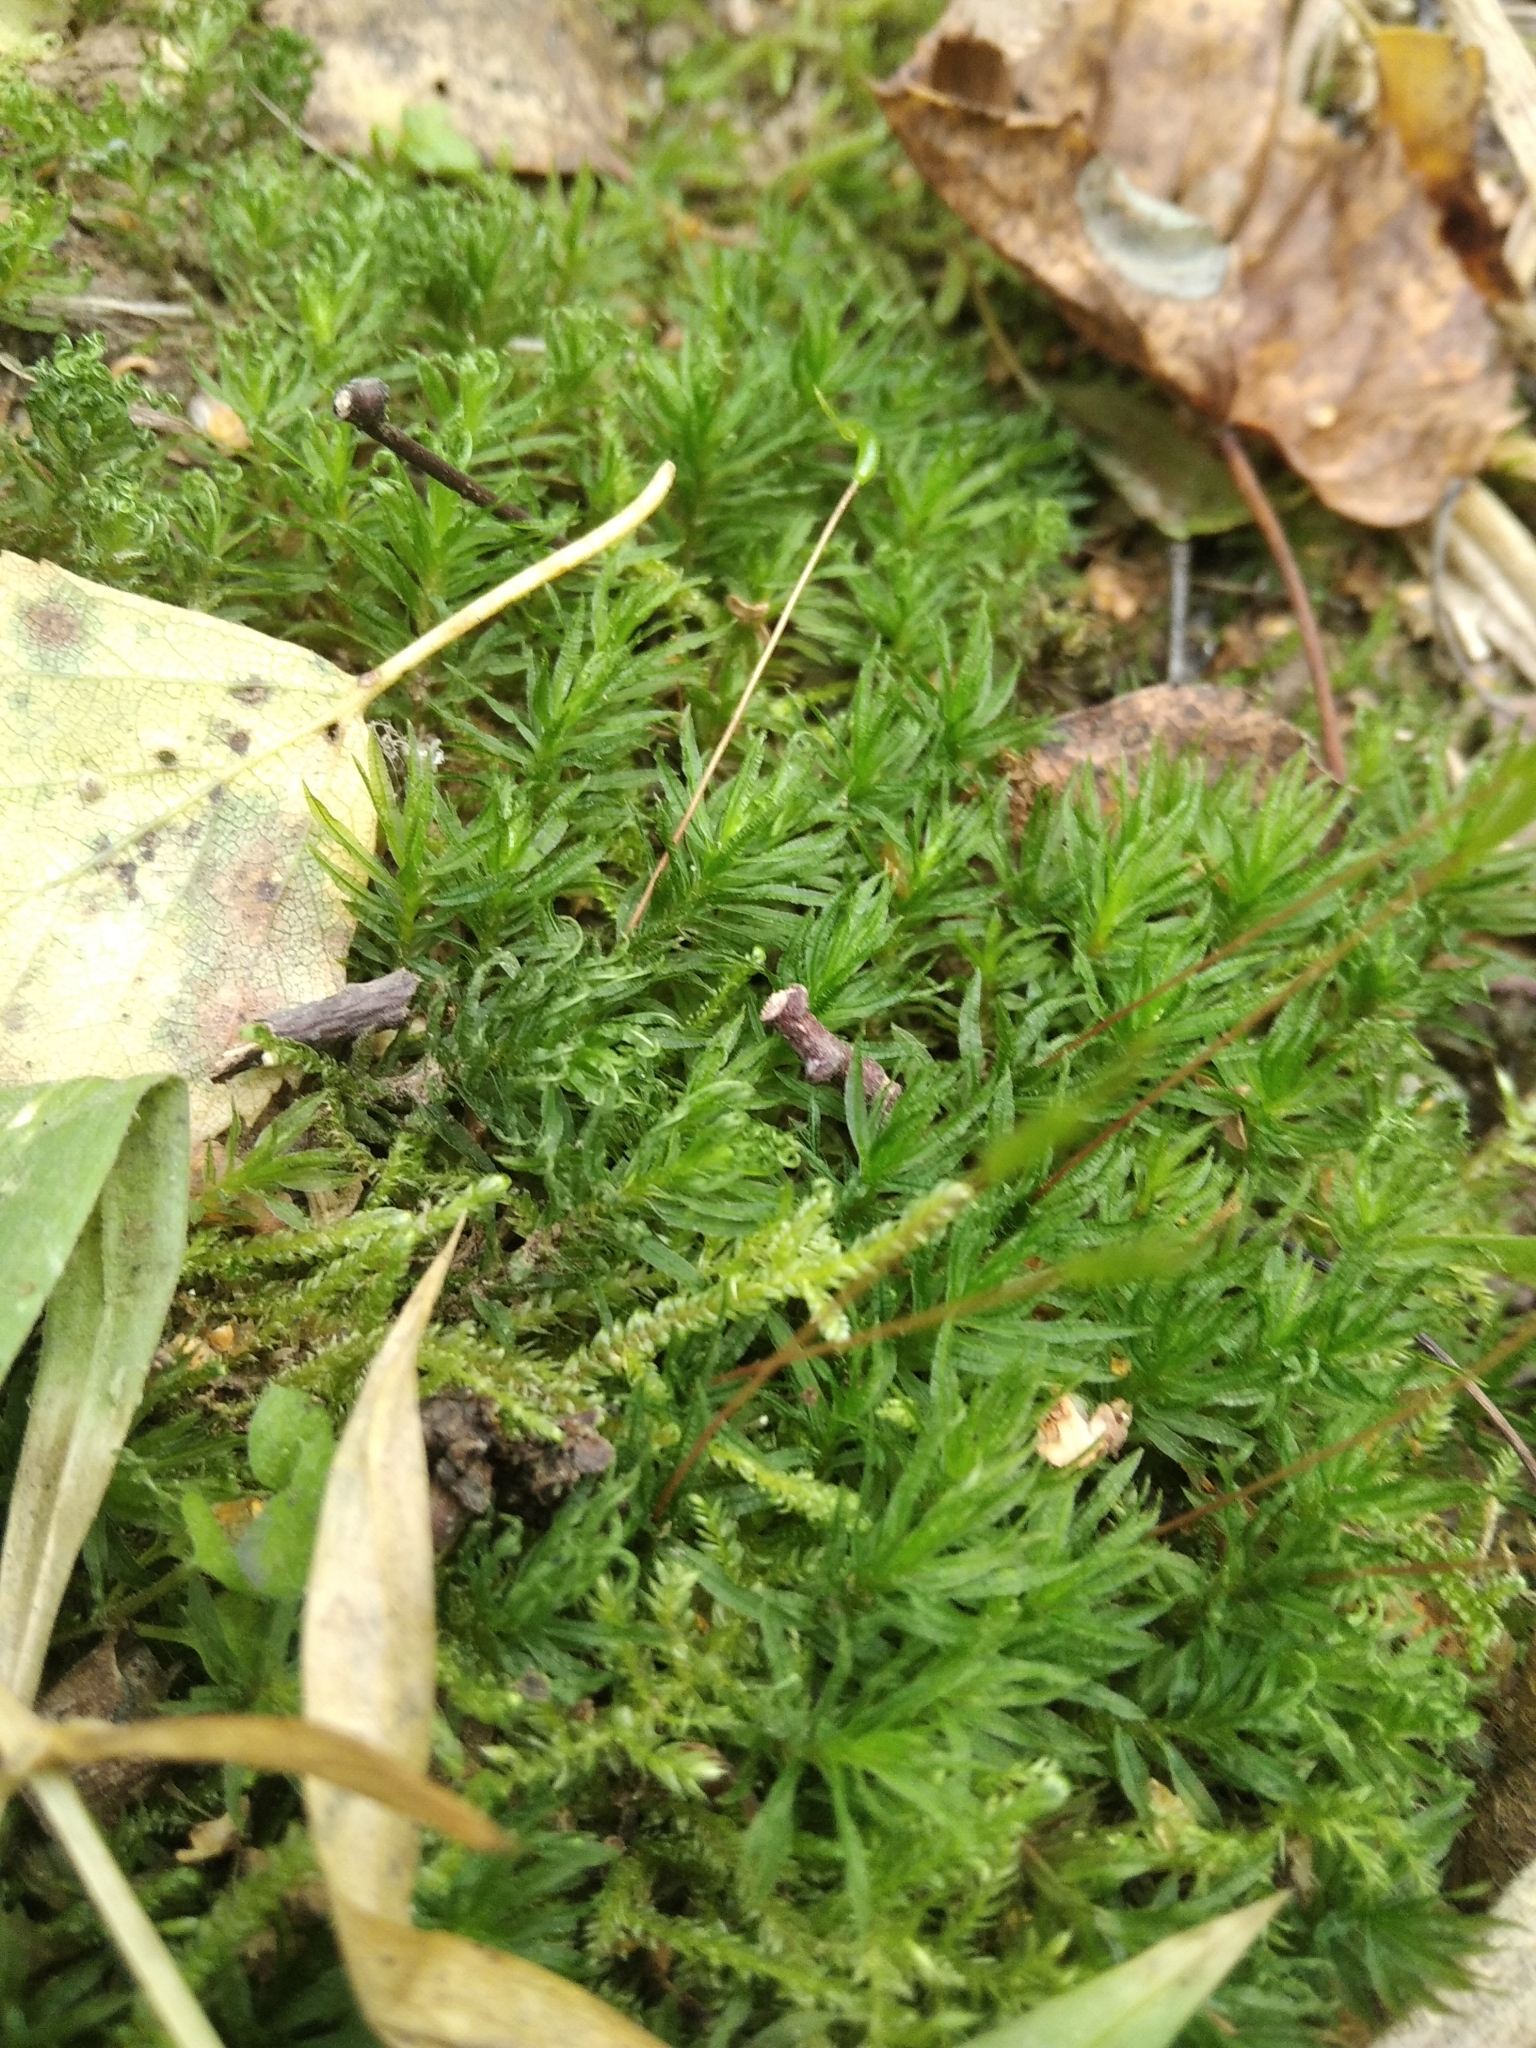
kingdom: Plantae
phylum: Bryophyta
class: Polytrichopsida
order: Polytrichales
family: Polytrichaceae
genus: Atrichum
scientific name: Atrichum undulatum
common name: Common smoothcap
